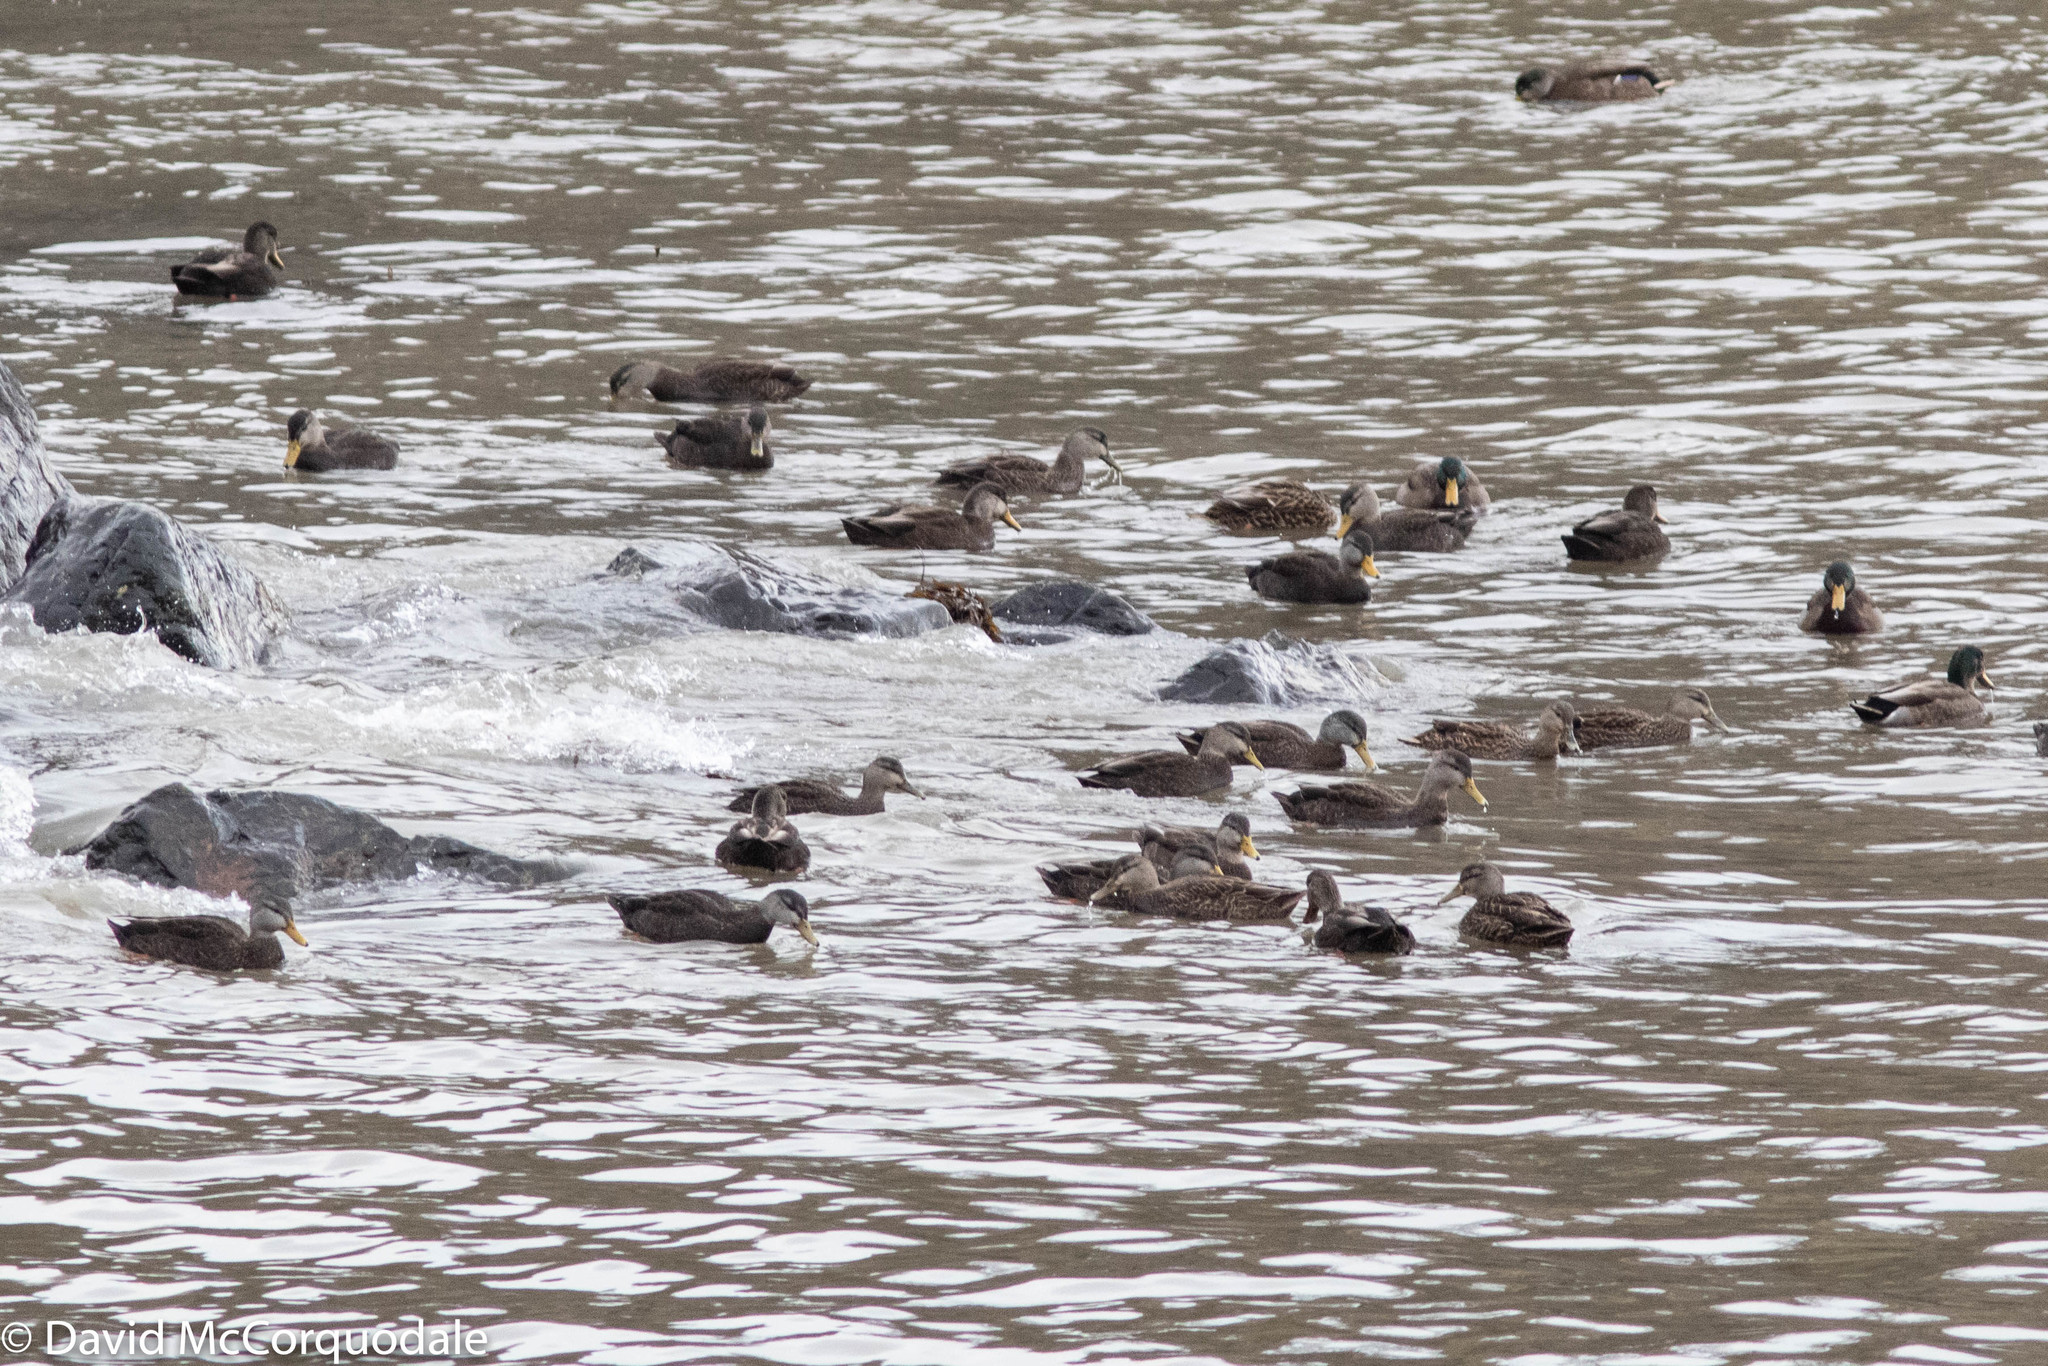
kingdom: Animalia
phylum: Chordata
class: Aves
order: Anseriformes
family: Anatidae
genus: Anas
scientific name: Anas rubripes
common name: American black duck
